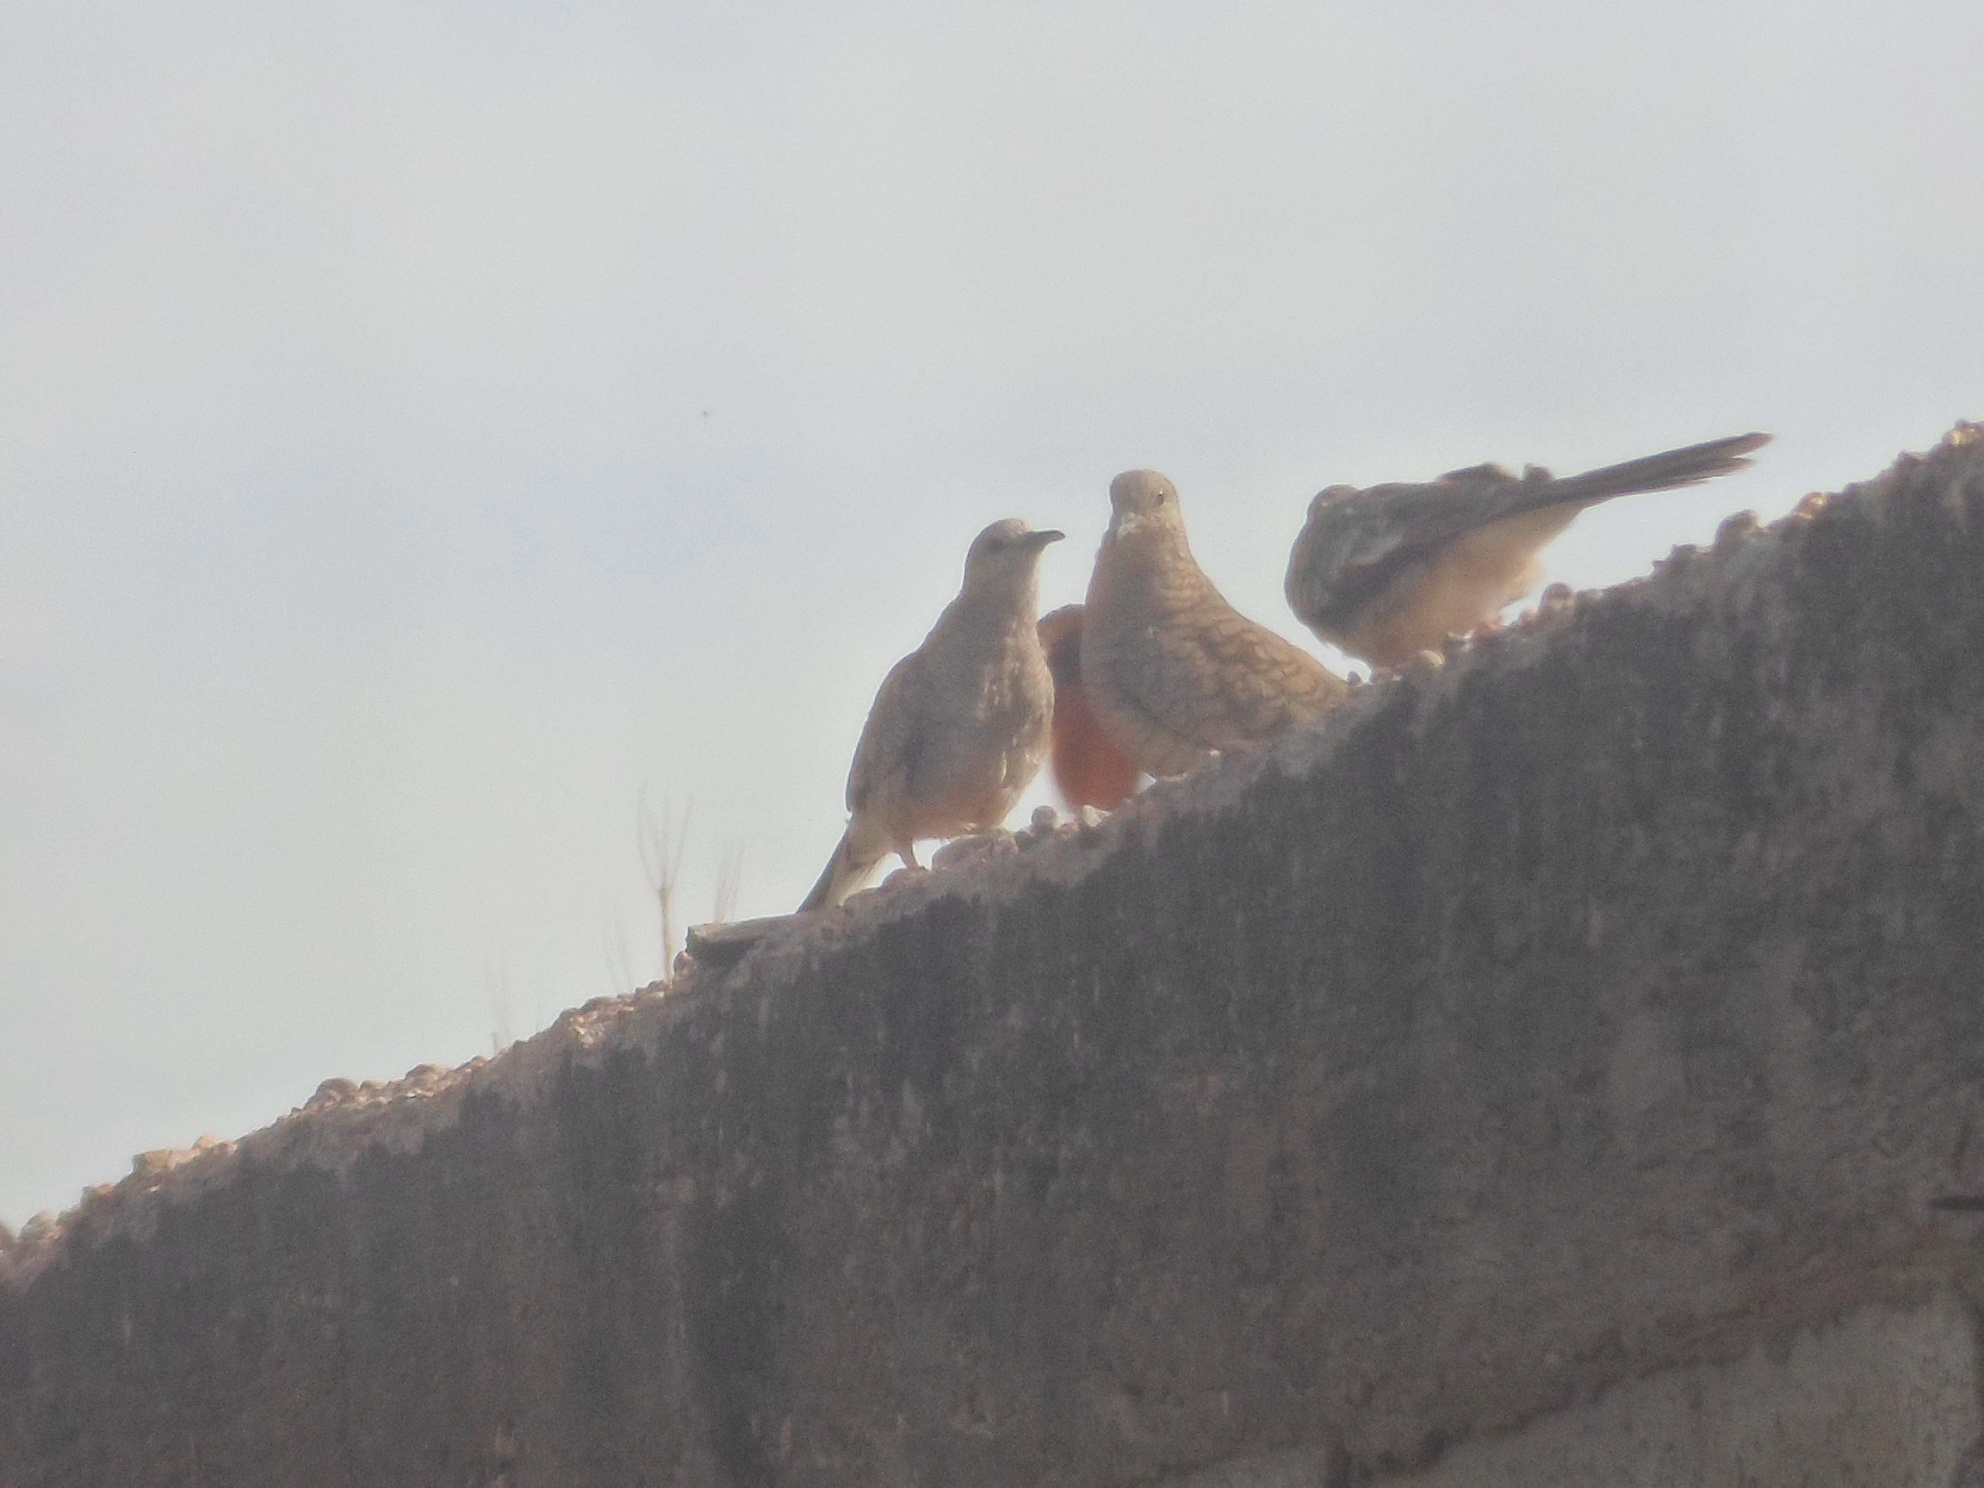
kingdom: Animalia
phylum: Chordata
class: Aves
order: Columbiformes
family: Columbidae
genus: Columbina
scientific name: Columbina inca
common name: Inca dove
